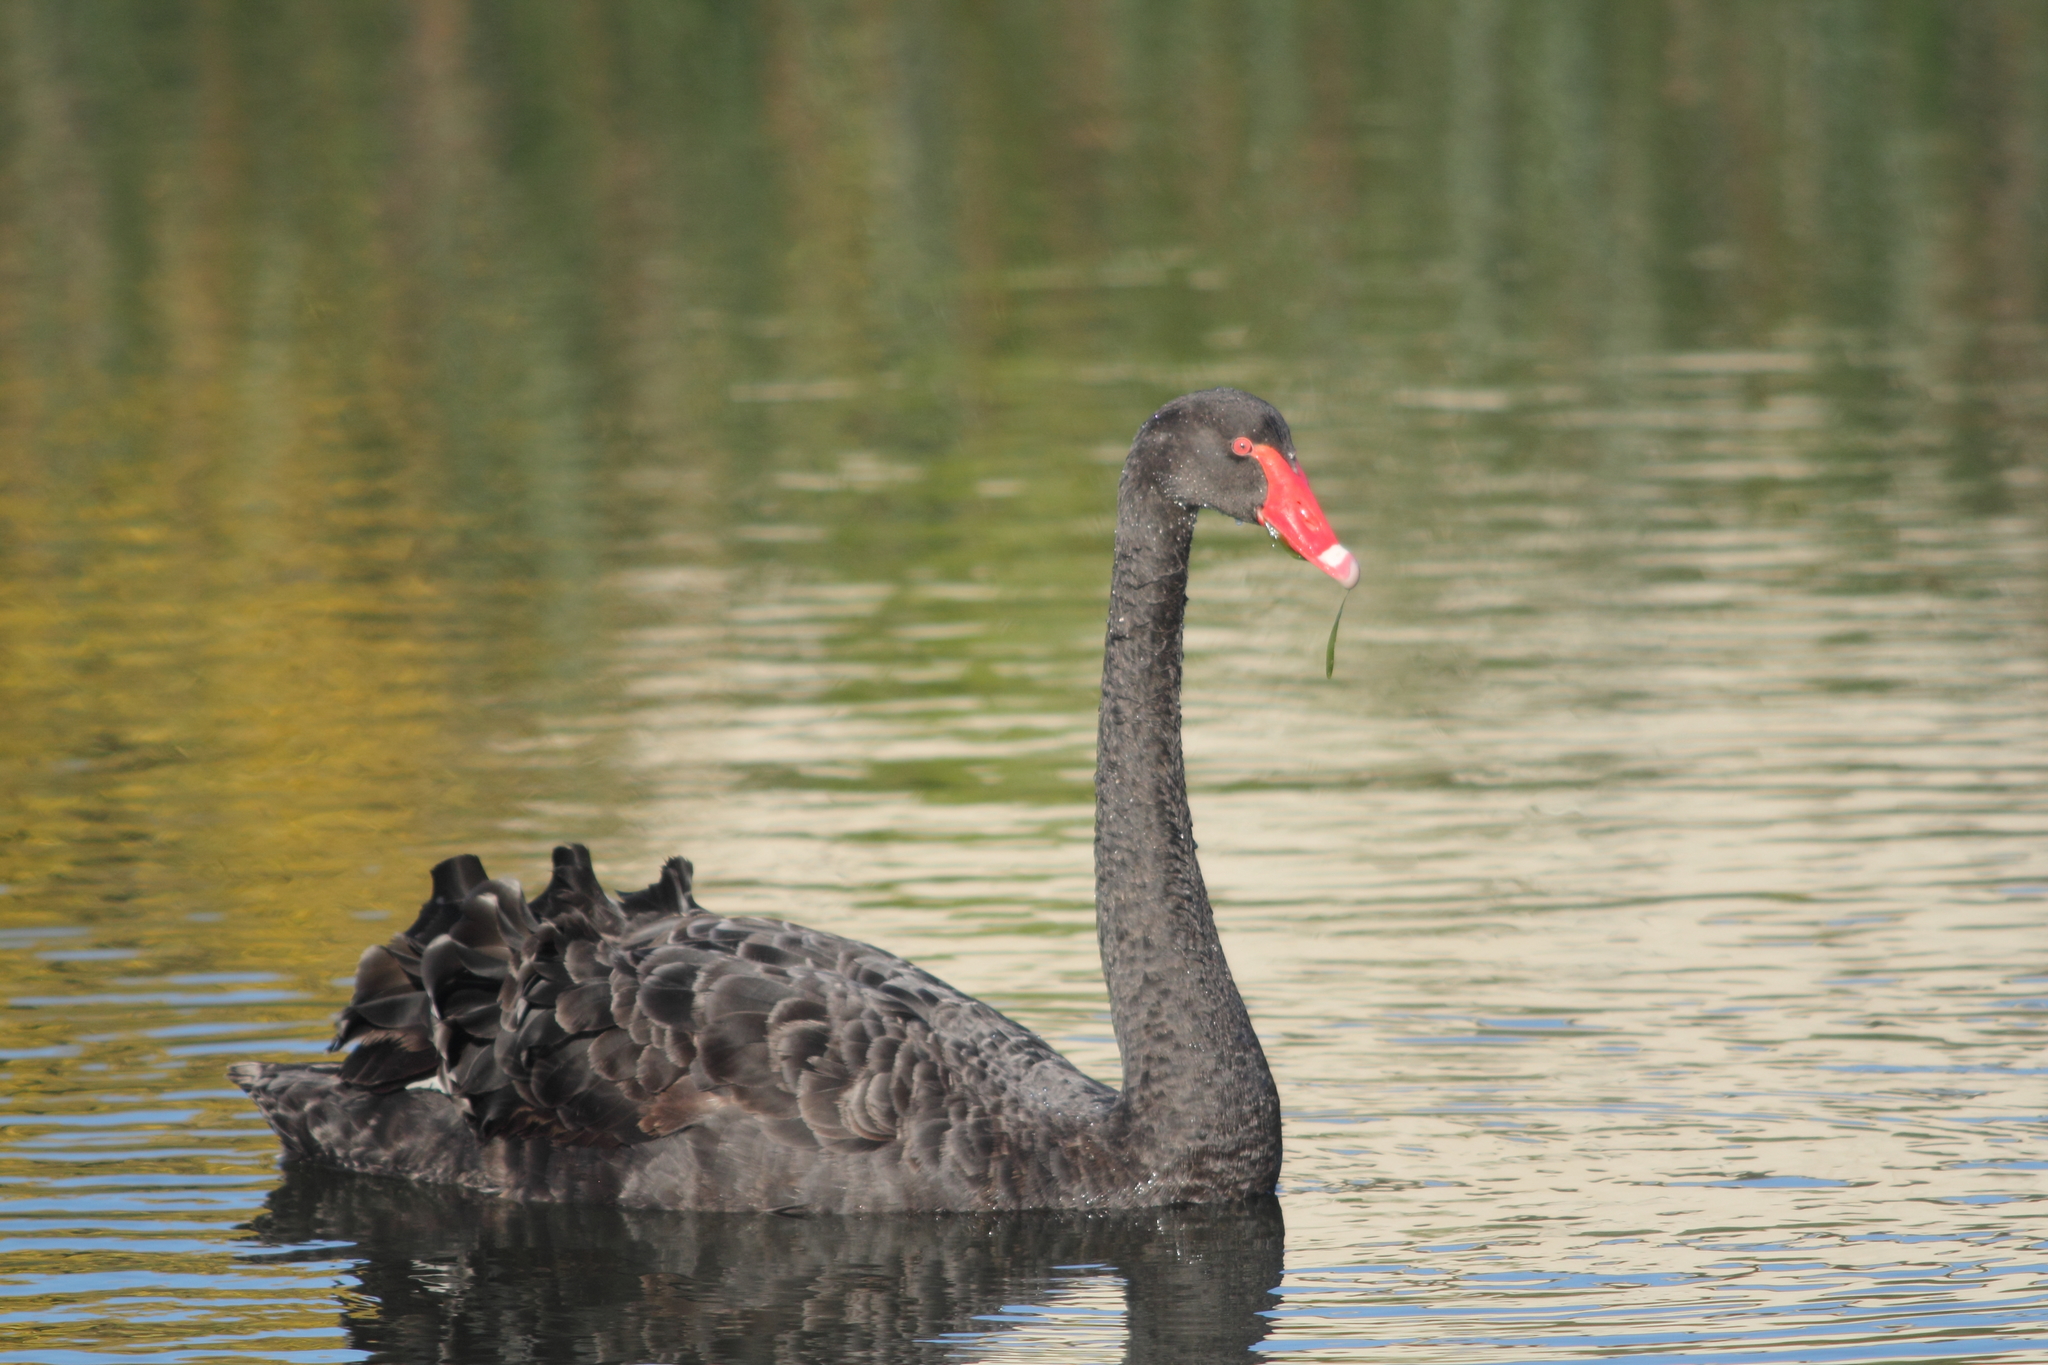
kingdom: Animalia
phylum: Chordata
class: Aves
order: Anseriformes
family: Anatidae
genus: Cygnus
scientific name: Cygnus atratus
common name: Black swan
